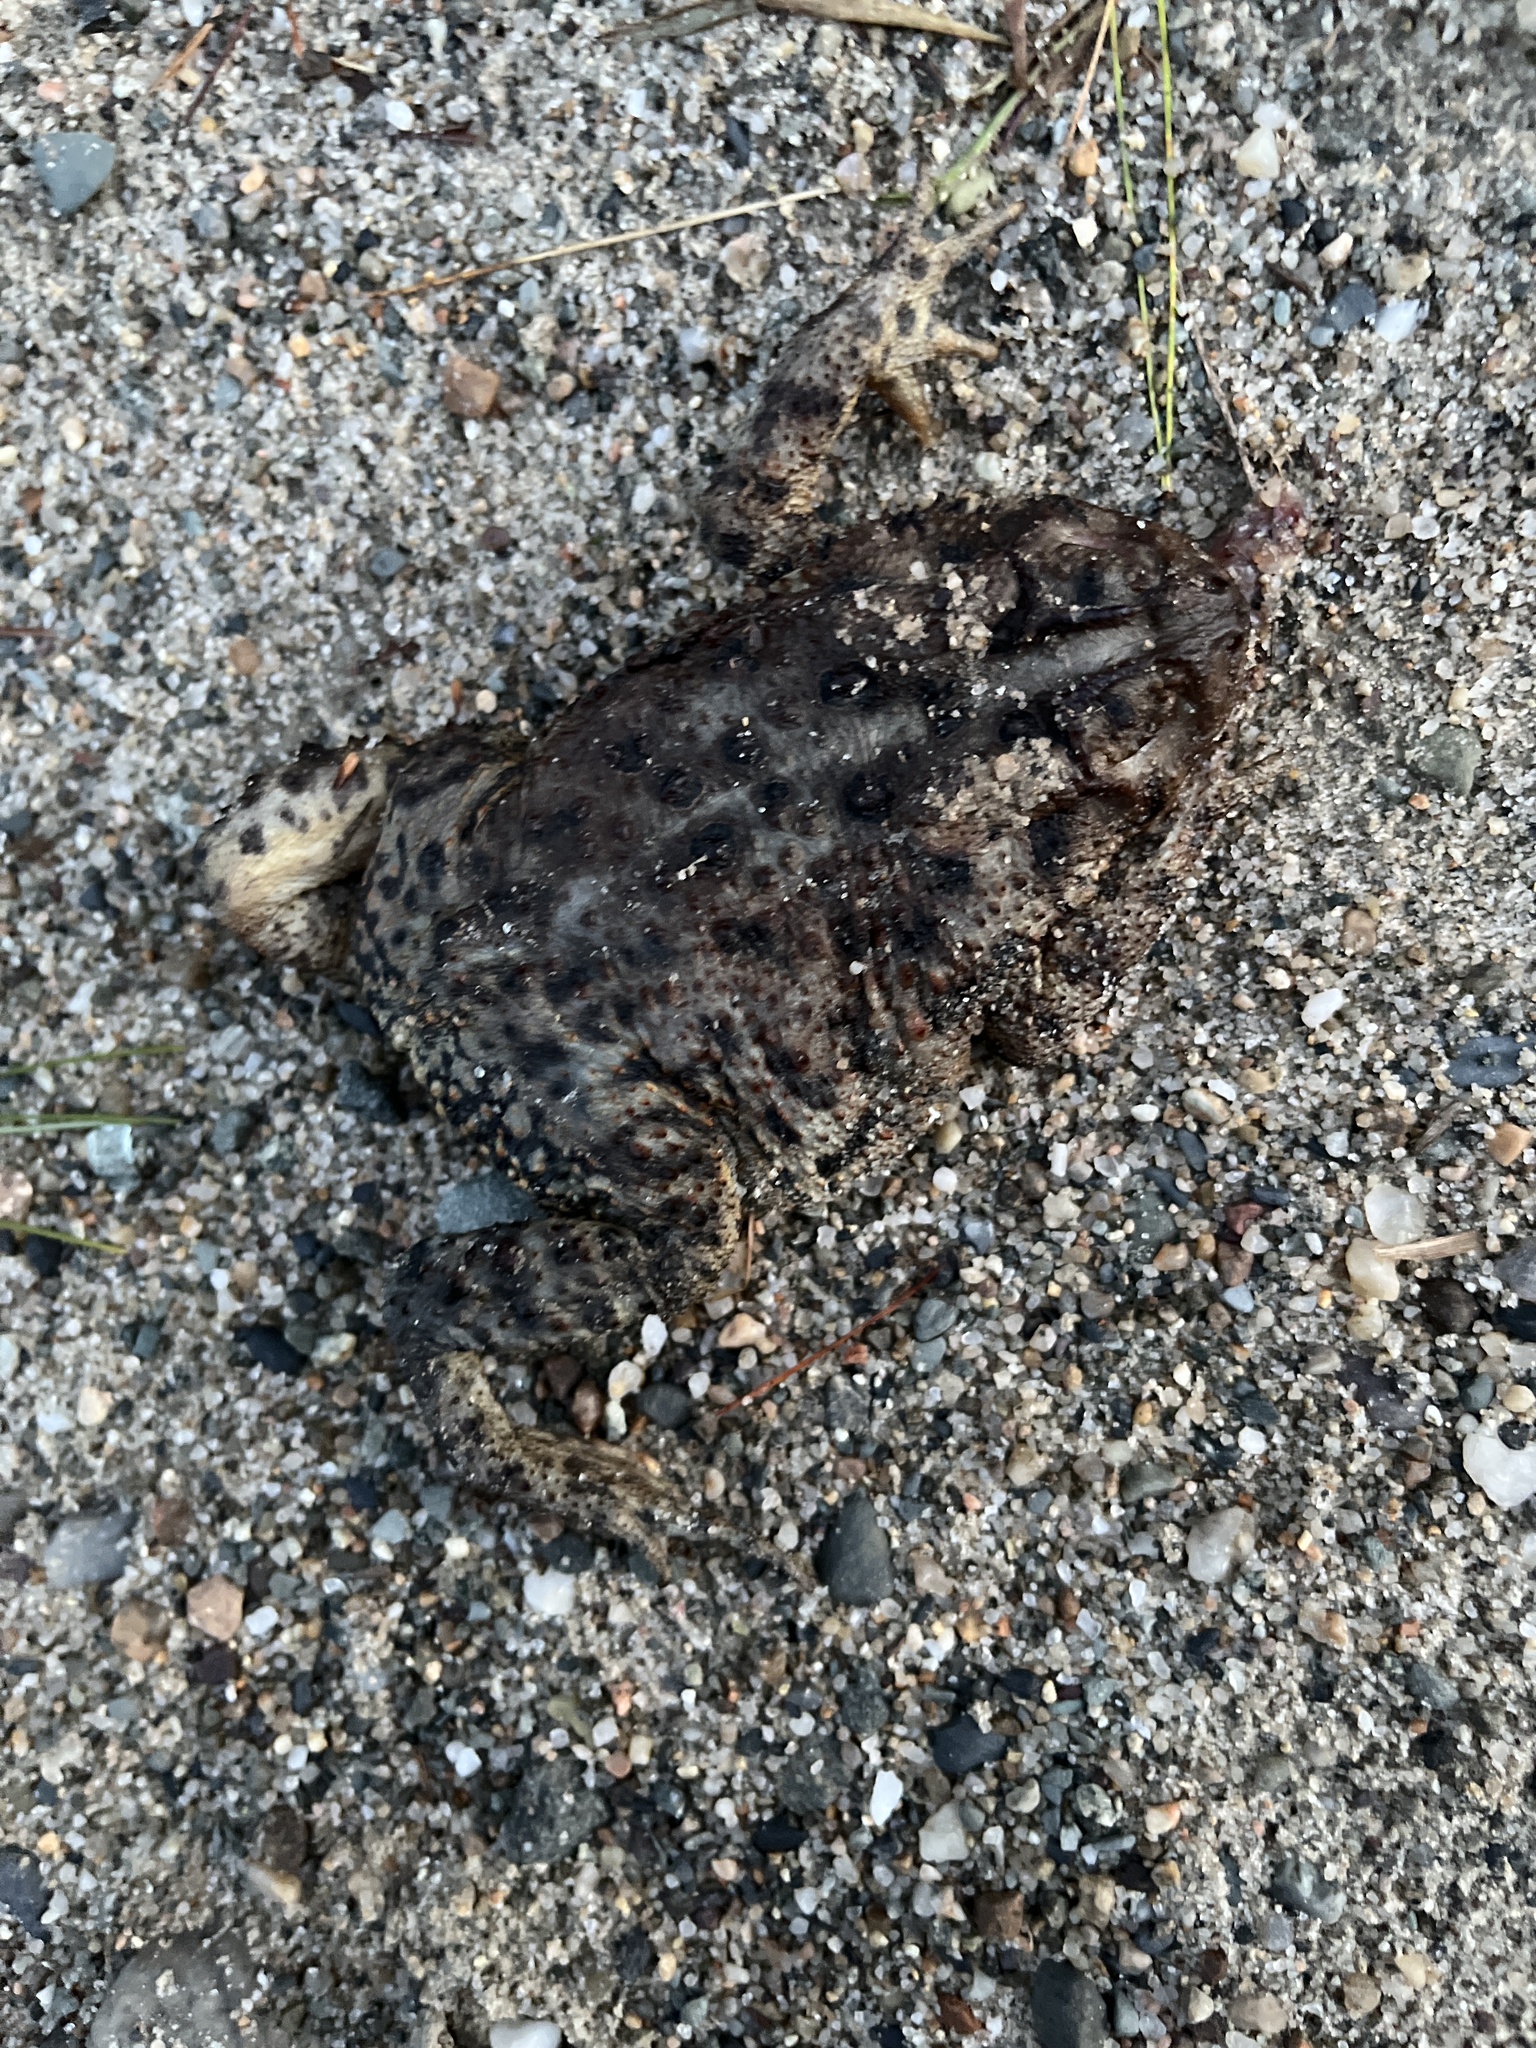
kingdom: Animalia
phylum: Chordata
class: Amphibia
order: Anura
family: Bufonidae
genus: Anaxyrus
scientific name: Anaxyrus americanus
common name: American toad
